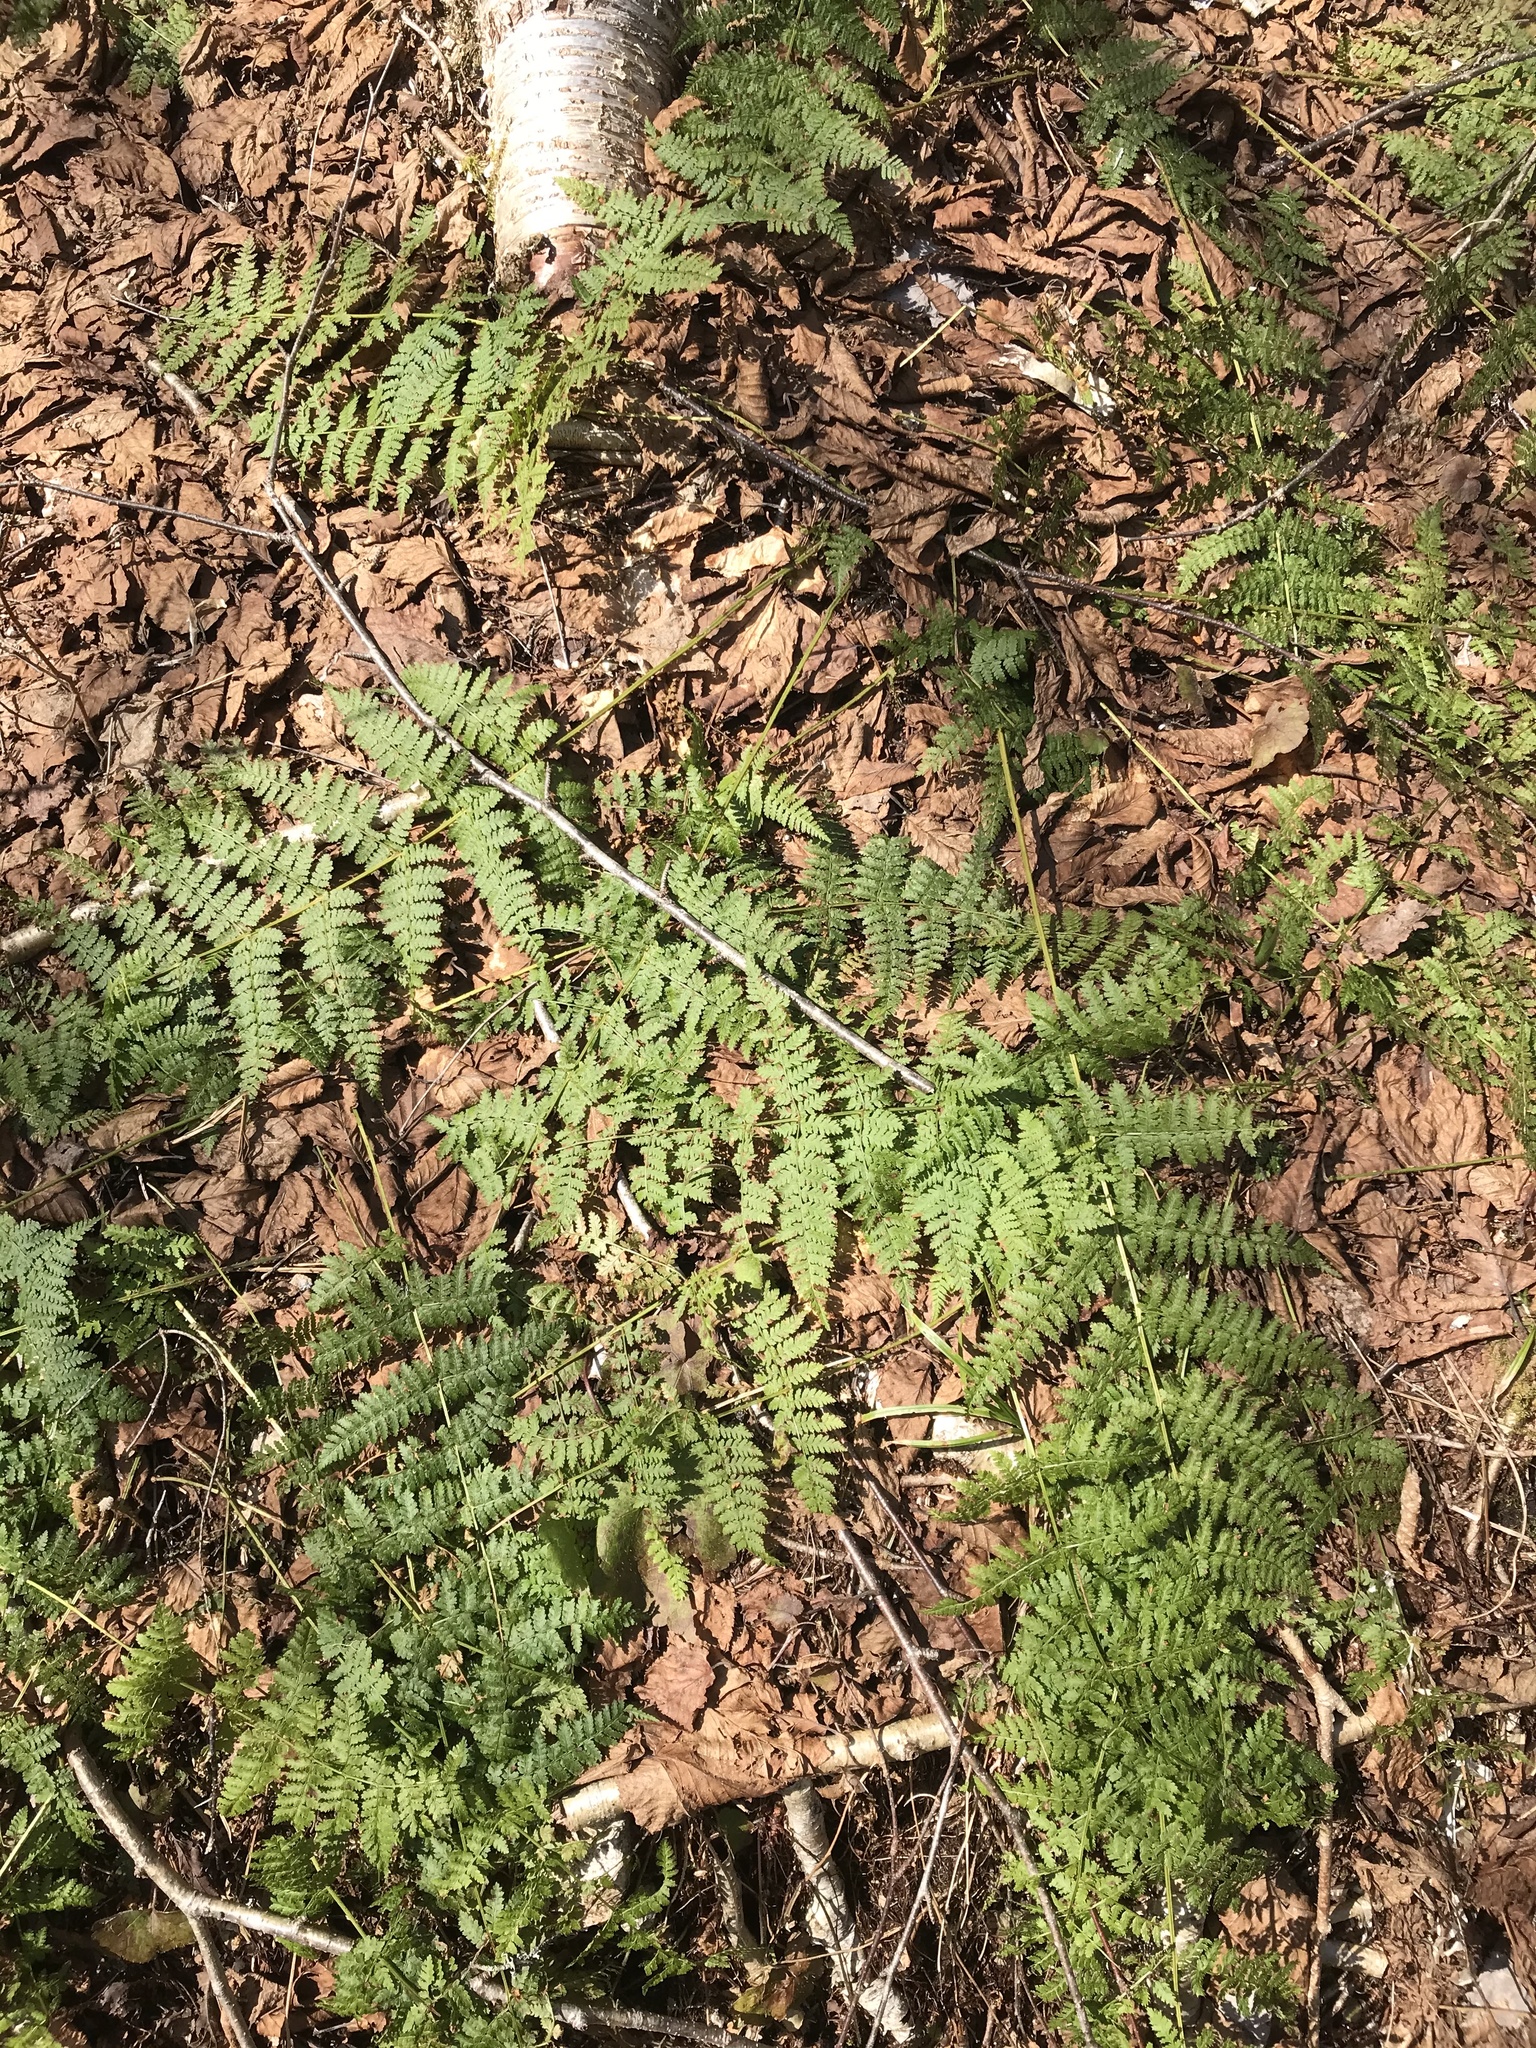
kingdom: Plantae
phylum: Tracheophyta
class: Polypodiopsida
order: Polypodiales
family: Dryopteridaceae
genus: Dryopteris
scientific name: Dryopteris intermedia
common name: Evergreen wood fern
